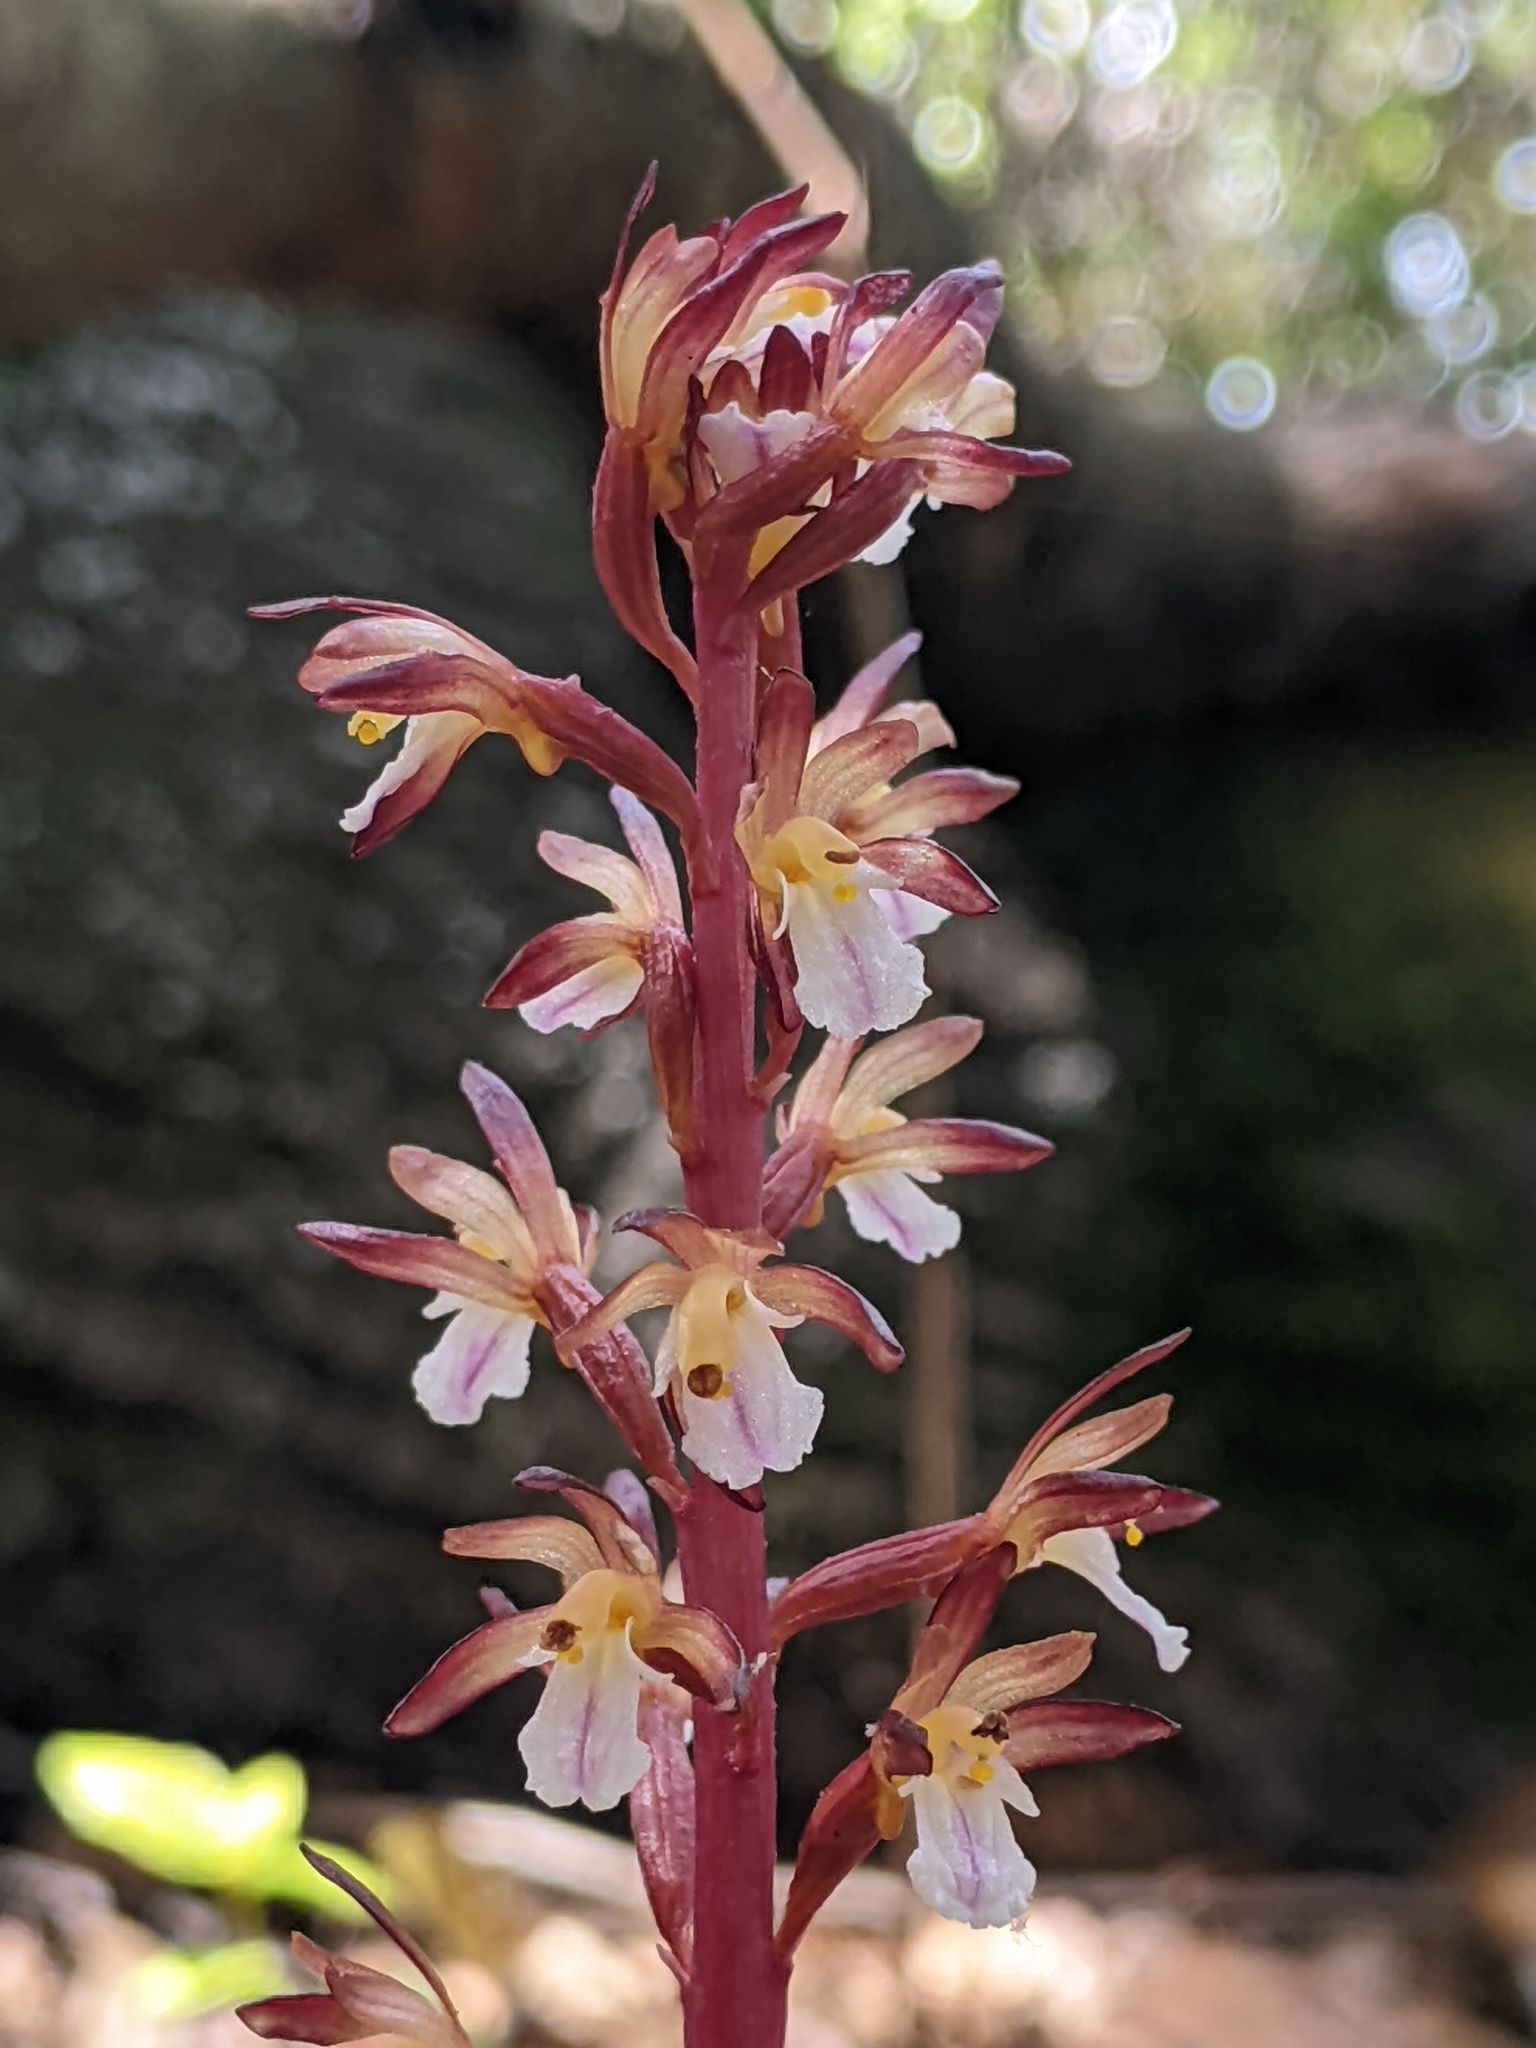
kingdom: Plantae
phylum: Tracheophyta
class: Liliopsida
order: Asparagales
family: Orchidaceae
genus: Corallorhiza
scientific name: Corallorhiza maculata
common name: Spotted coralroot
